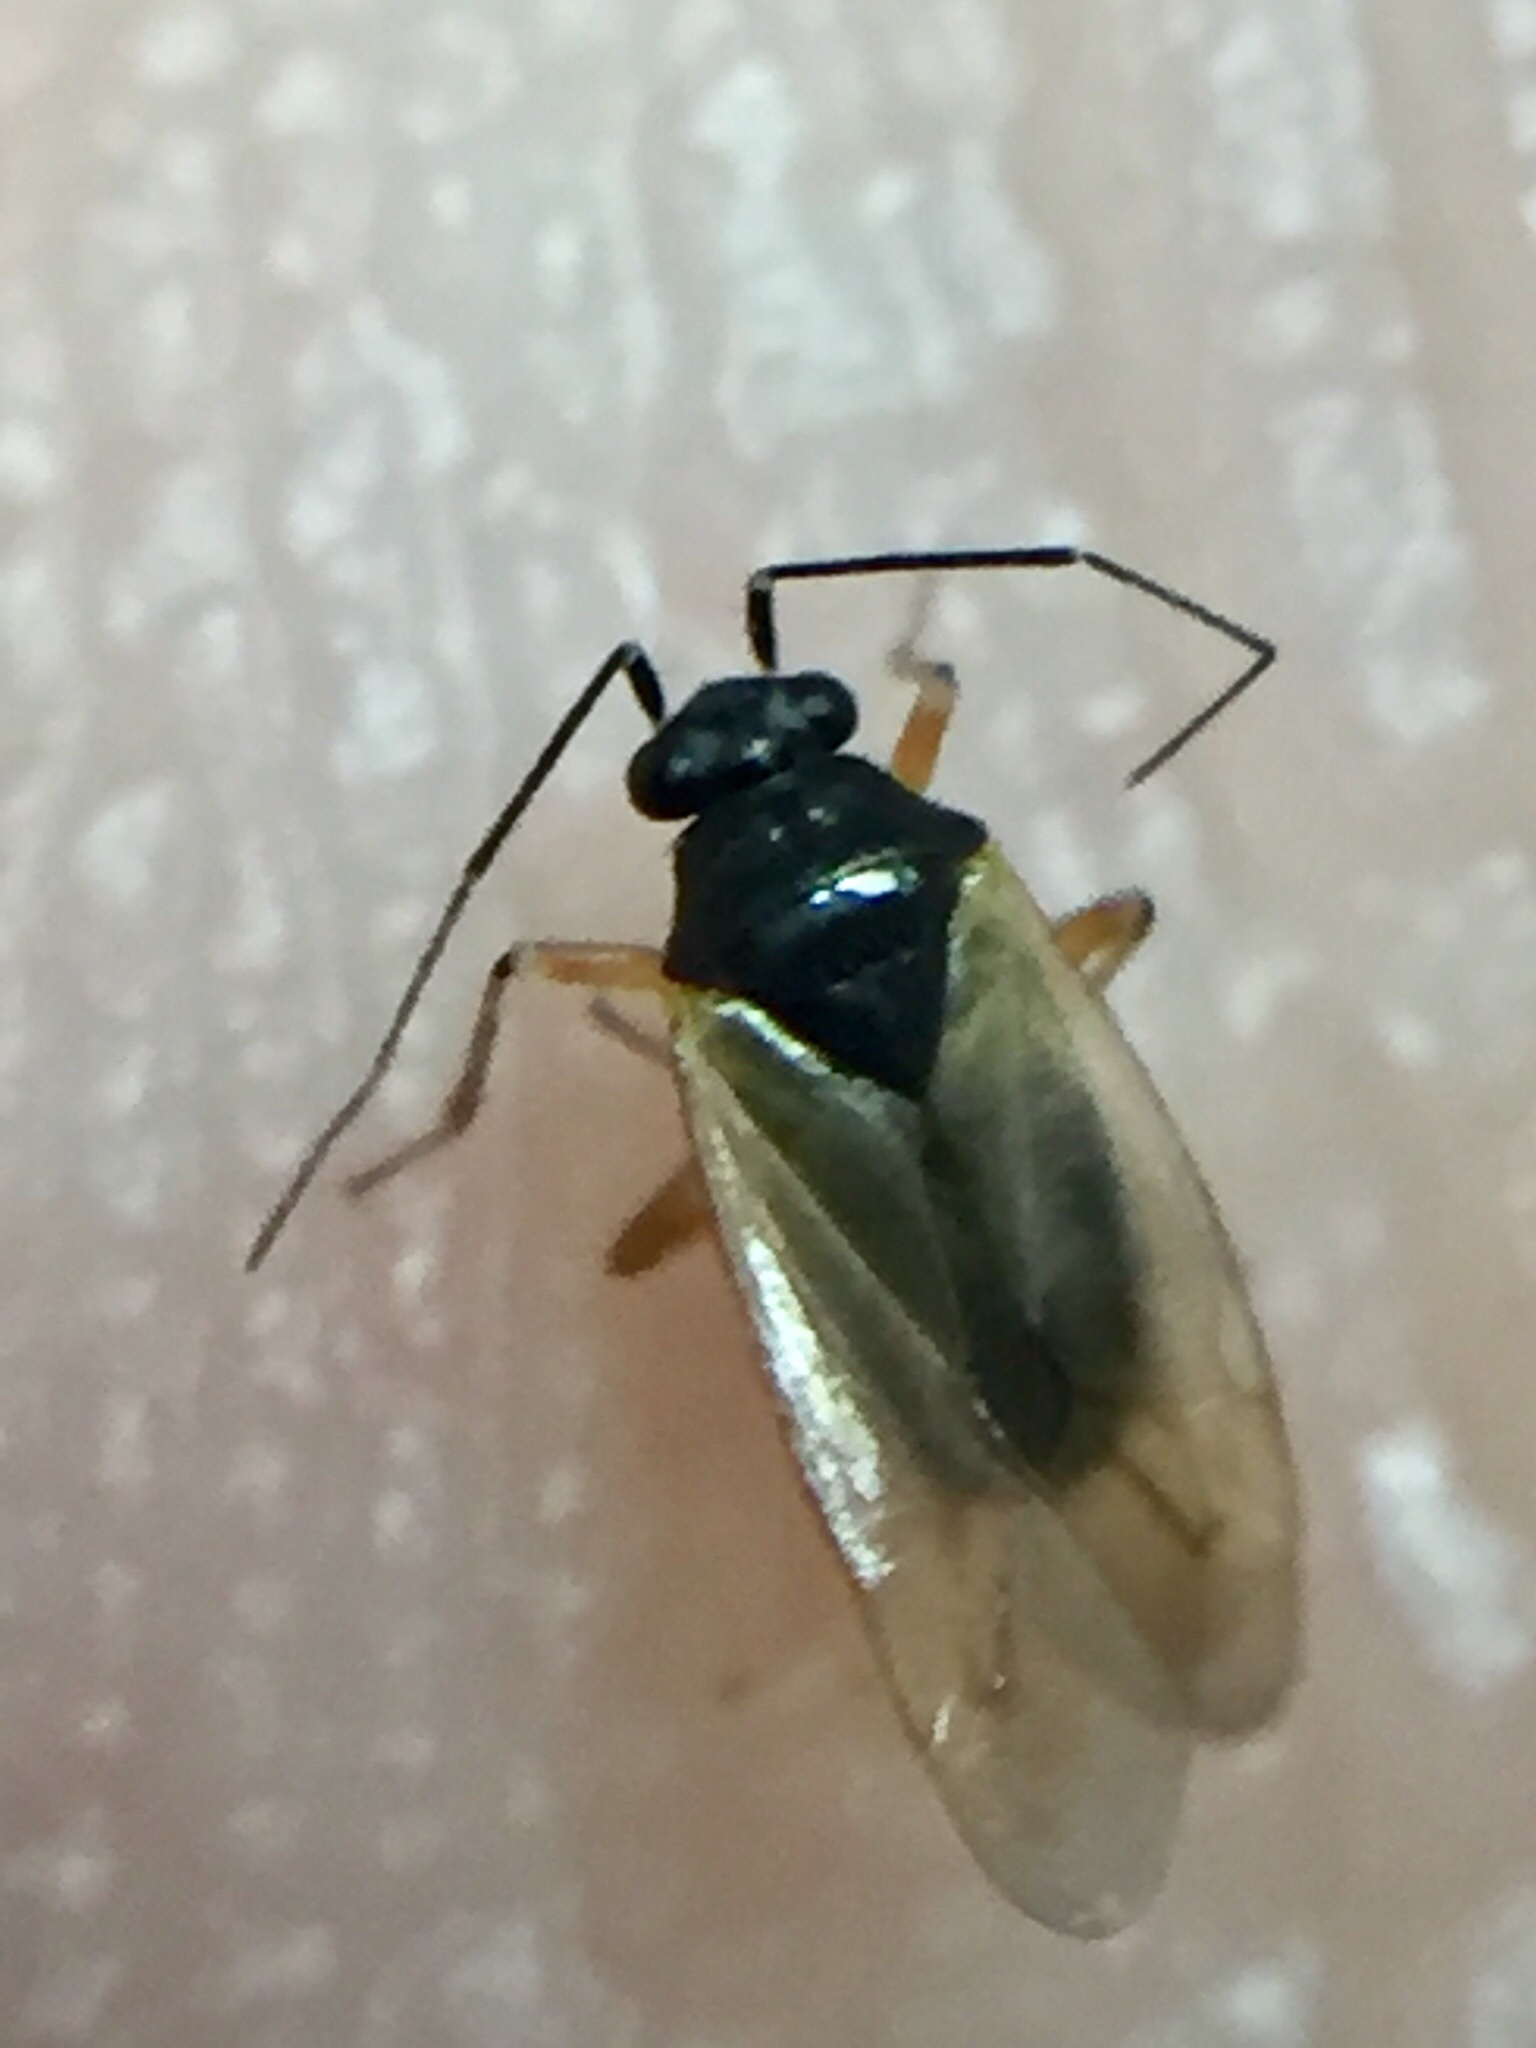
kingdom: Animalia
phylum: Arthropoda
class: Insecta
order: Hemiptera
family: Miridae
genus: Tytthus
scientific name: Tytthus chinensis
